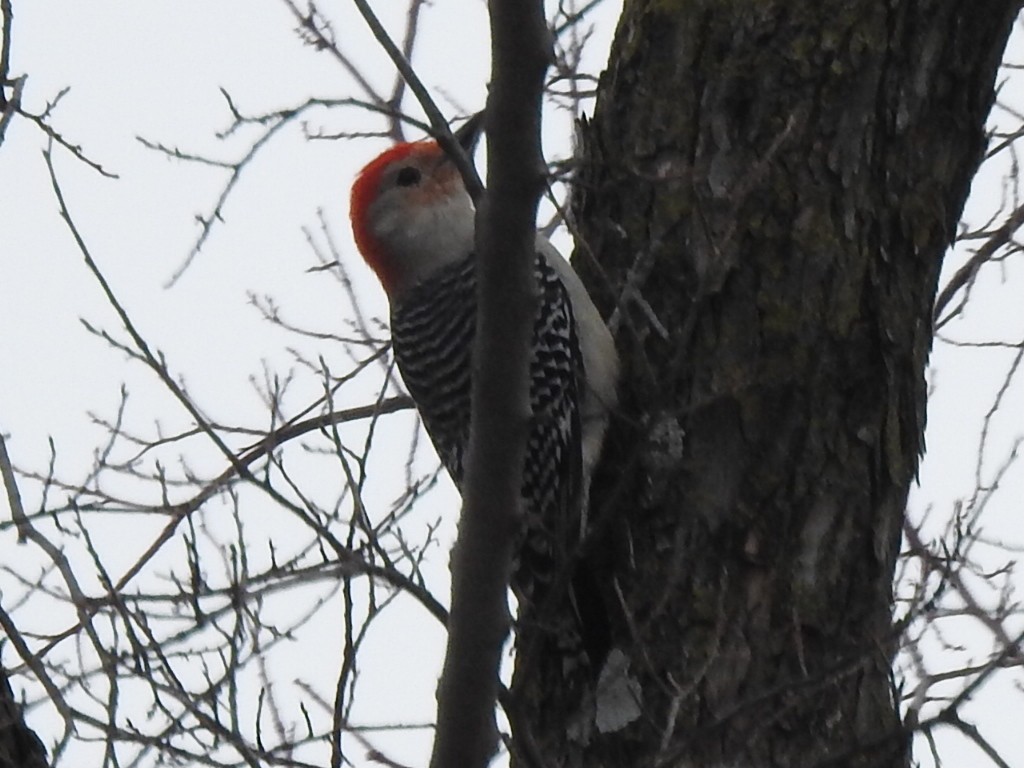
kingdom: Animalia
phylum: Chordata
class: Aves
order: Piciformes
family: Picidae
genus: Melanerpes
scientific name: Melanerpes carolinus
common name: Red-bellied woodpecker
